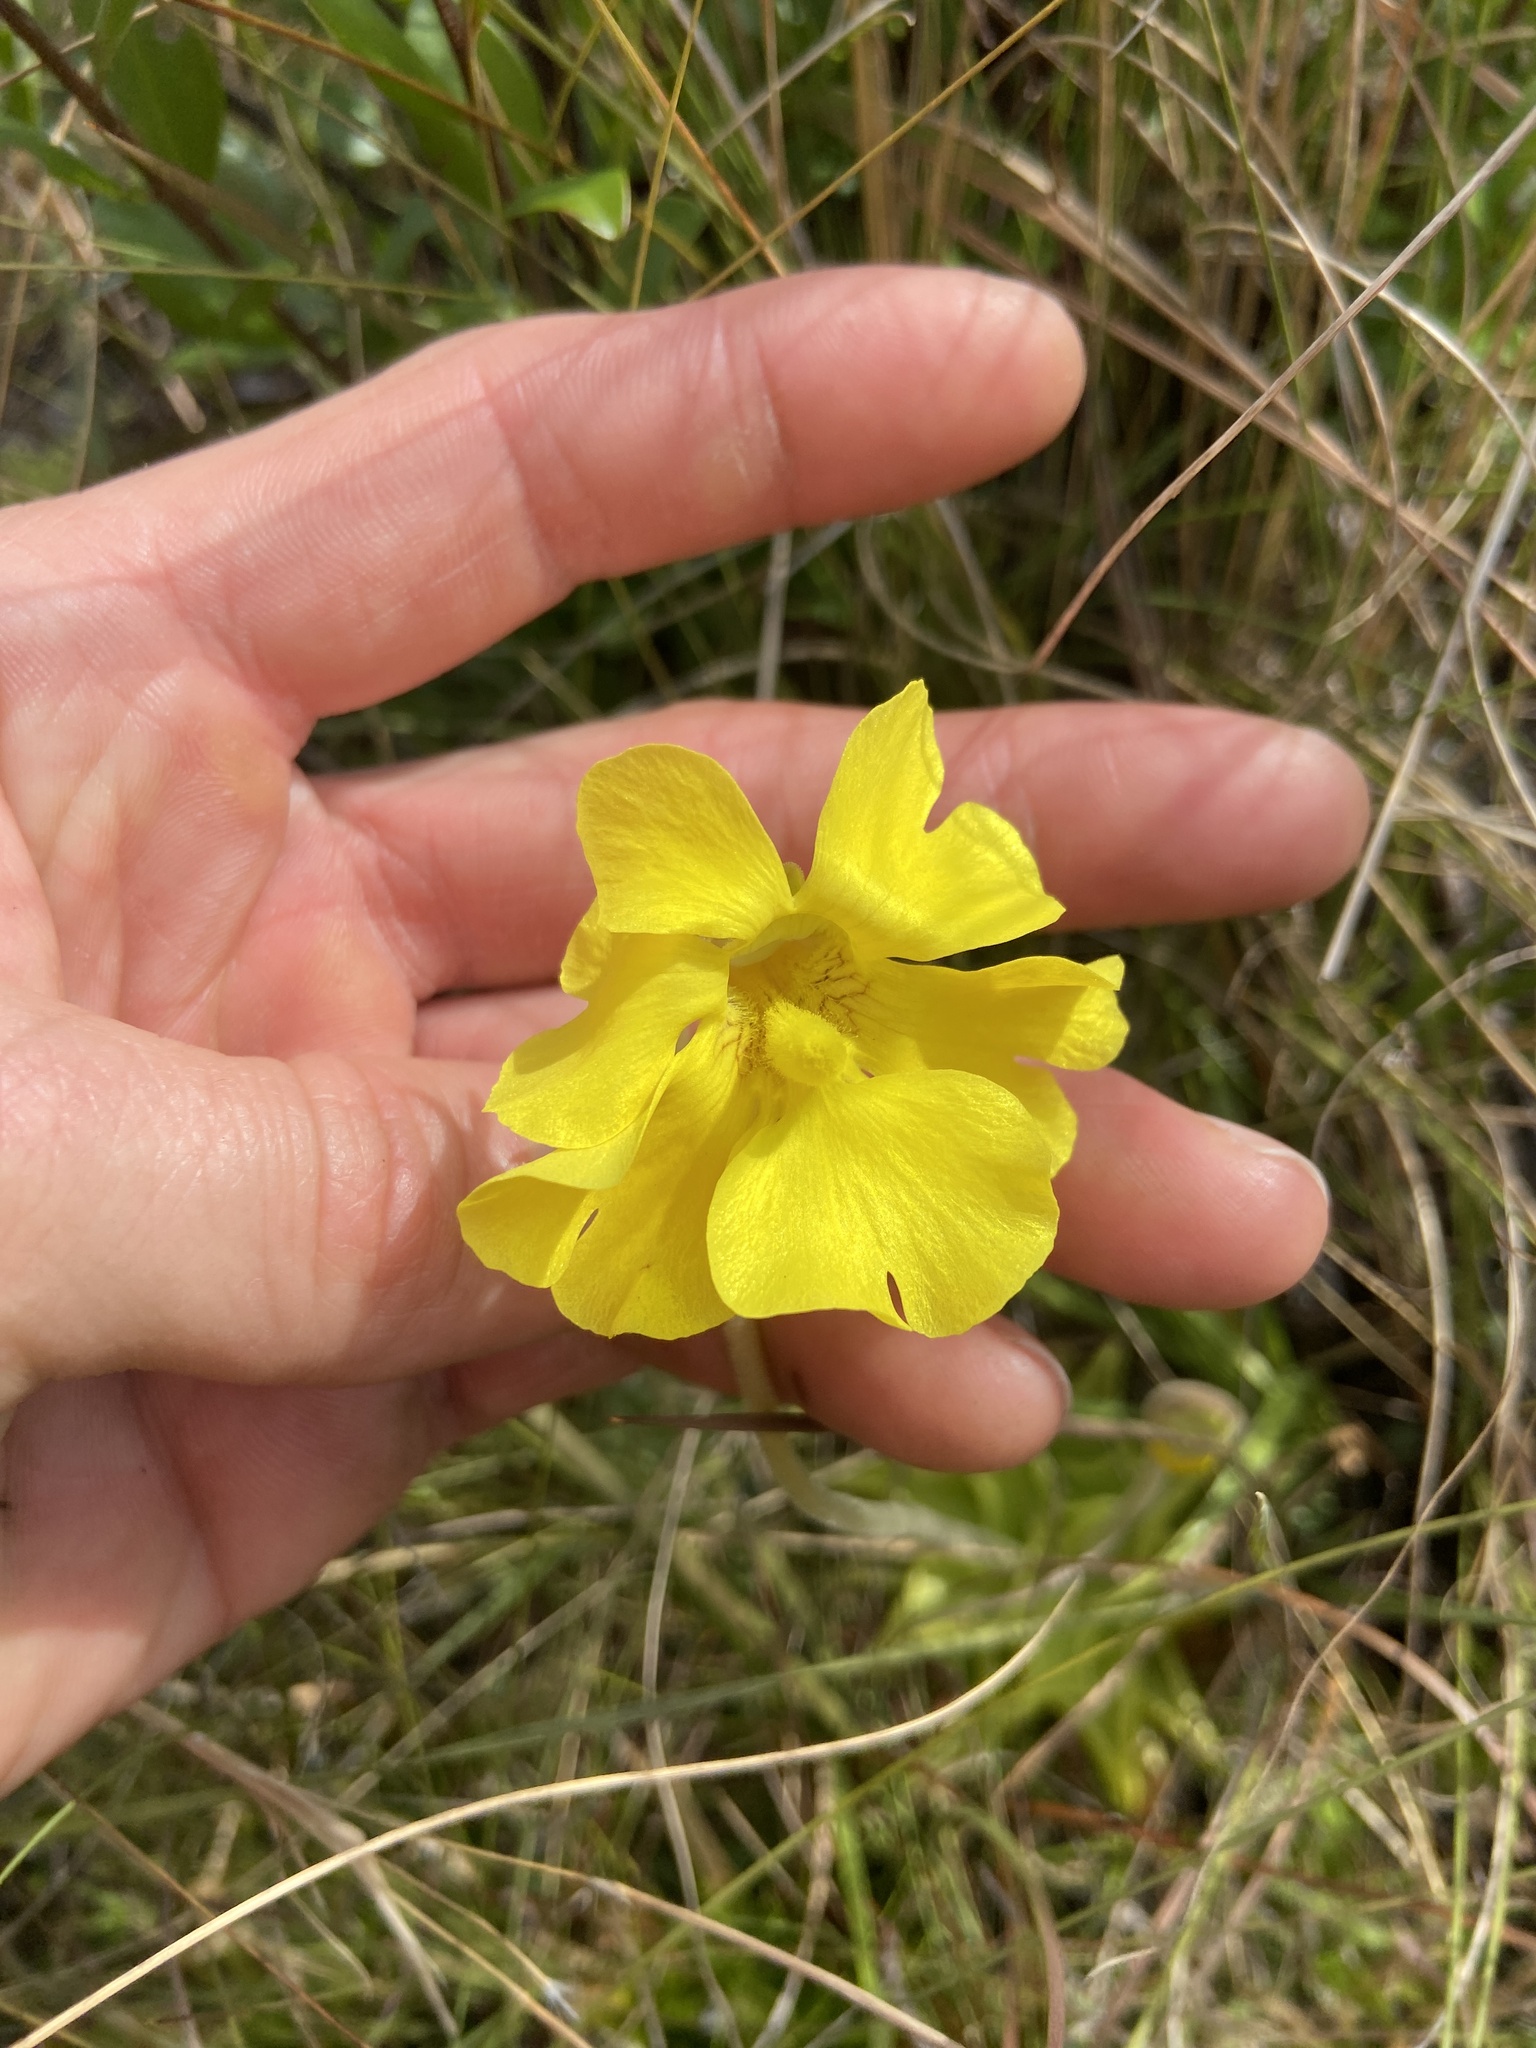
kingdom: Plantae
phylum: Tracheophyta
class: Magnoliopsida
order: Lamiales
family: Lentibulariaceae
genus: Pinguicula
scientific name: Pinguicula lutea
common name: Yellow butterwort
